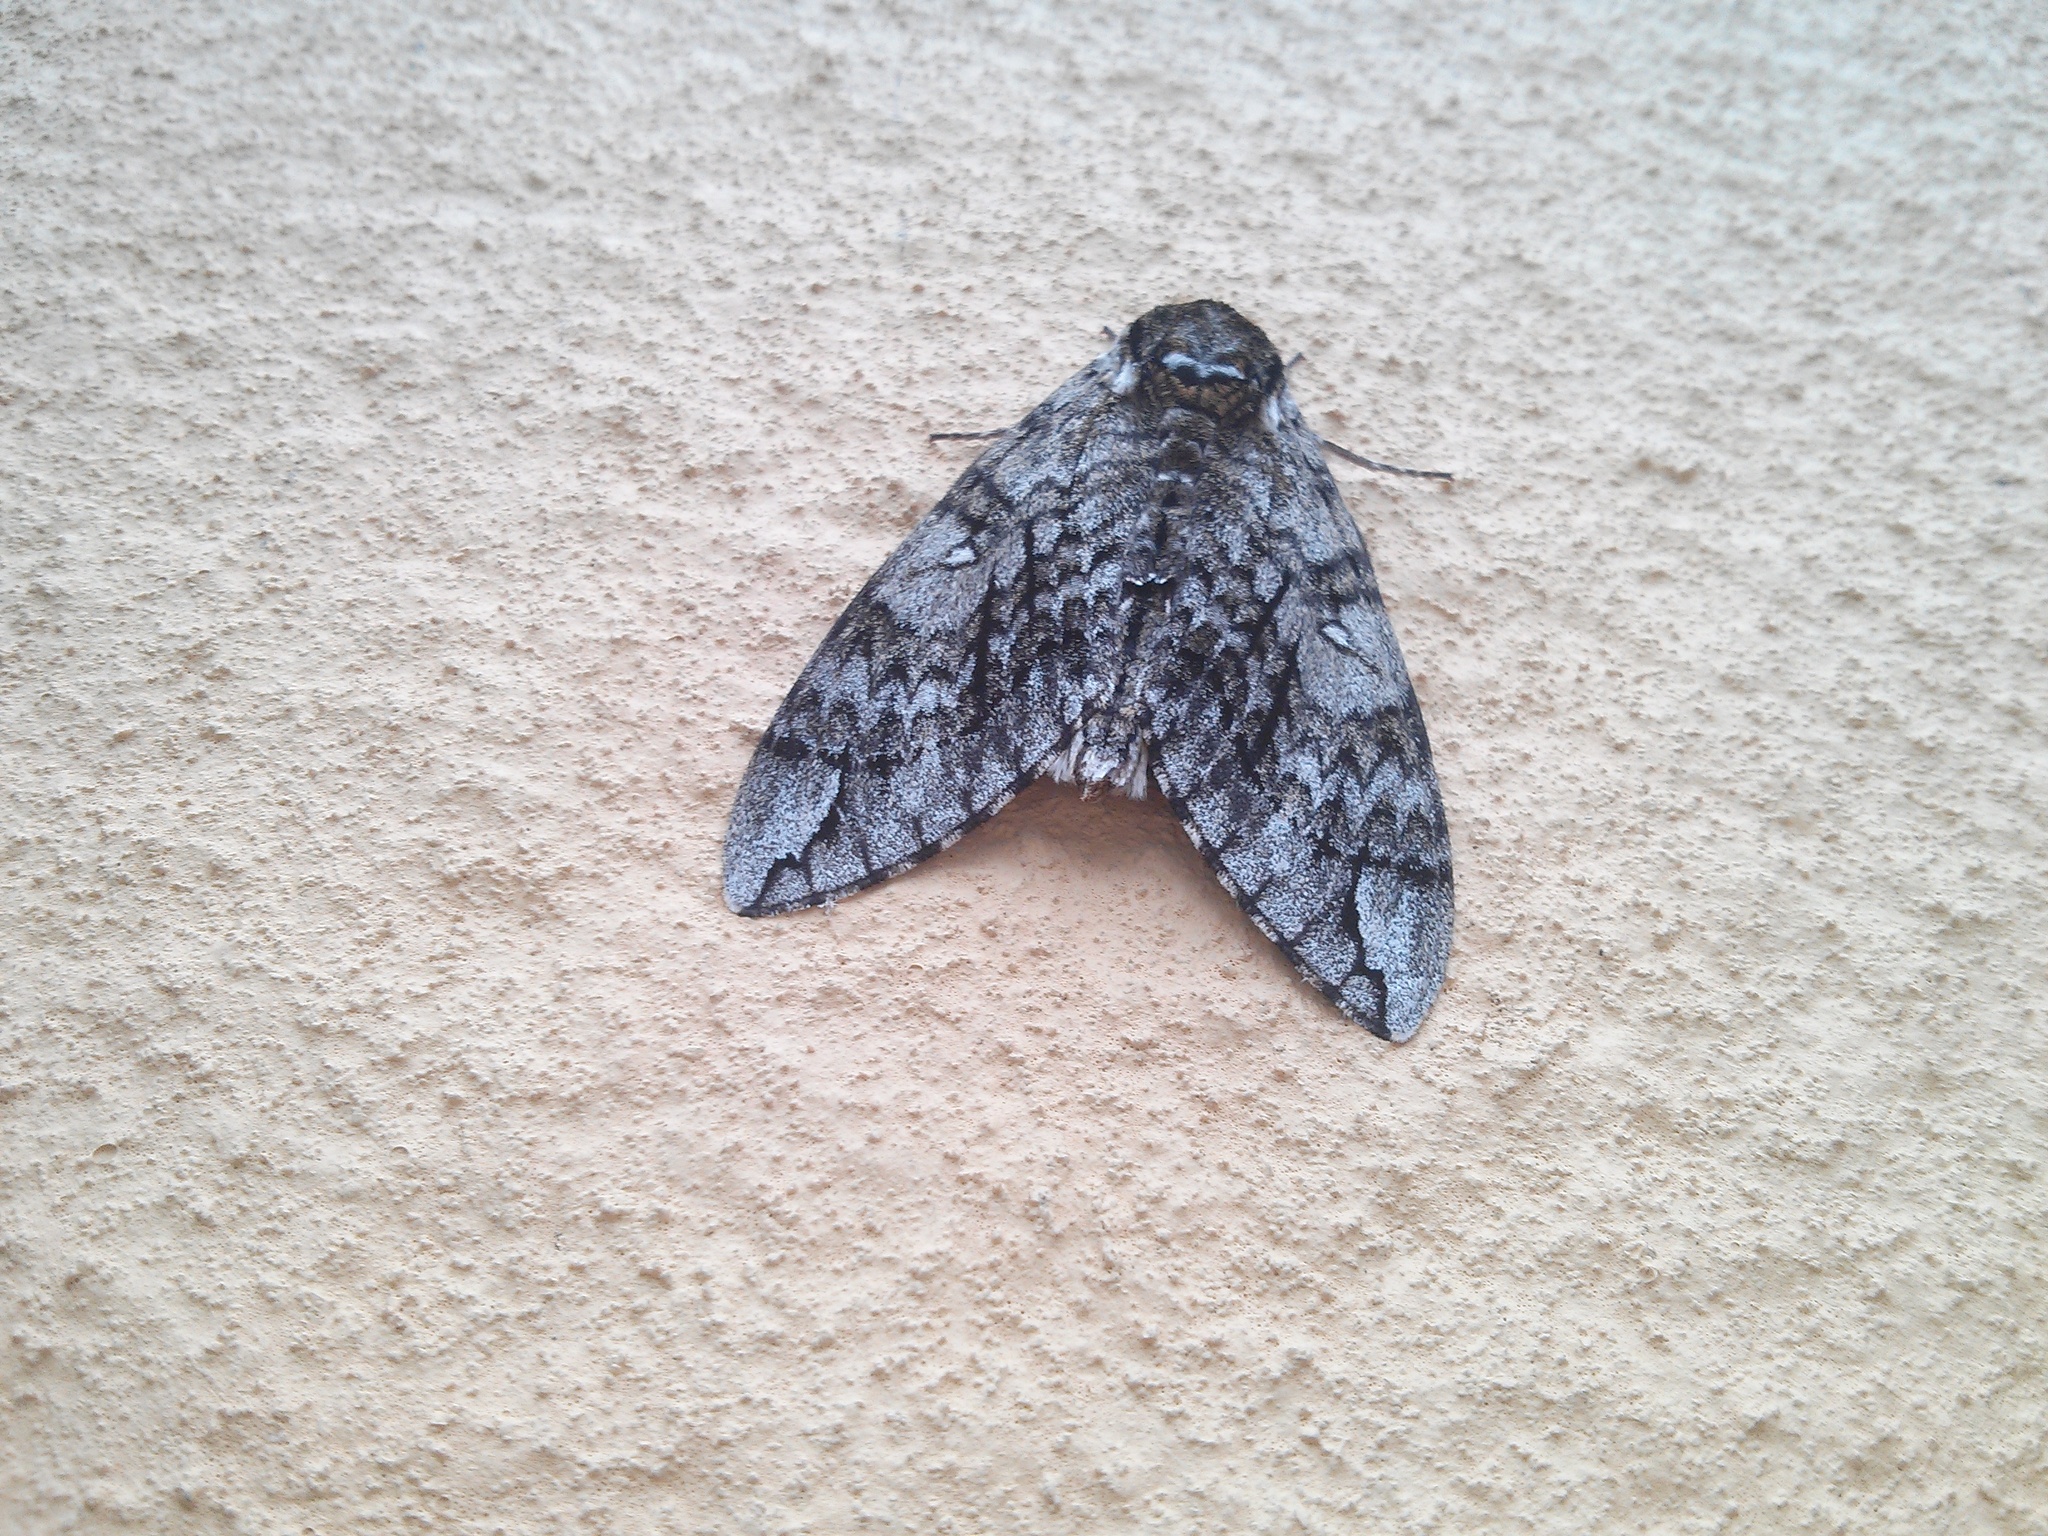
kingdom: Animalia
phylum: Arthropoda
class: Insecta
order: Lepidoptera
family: Sphingidae
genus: Ceratomia
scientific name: Ceratomia undulosa
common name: Waved sphinx
